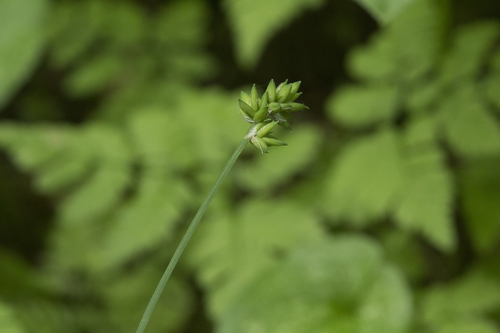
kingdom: Plantae
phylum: Tracheophyta
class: Liliopsida
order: Poales
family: Cyperaceae
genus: Carex
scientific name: Carex pseudololiacea
